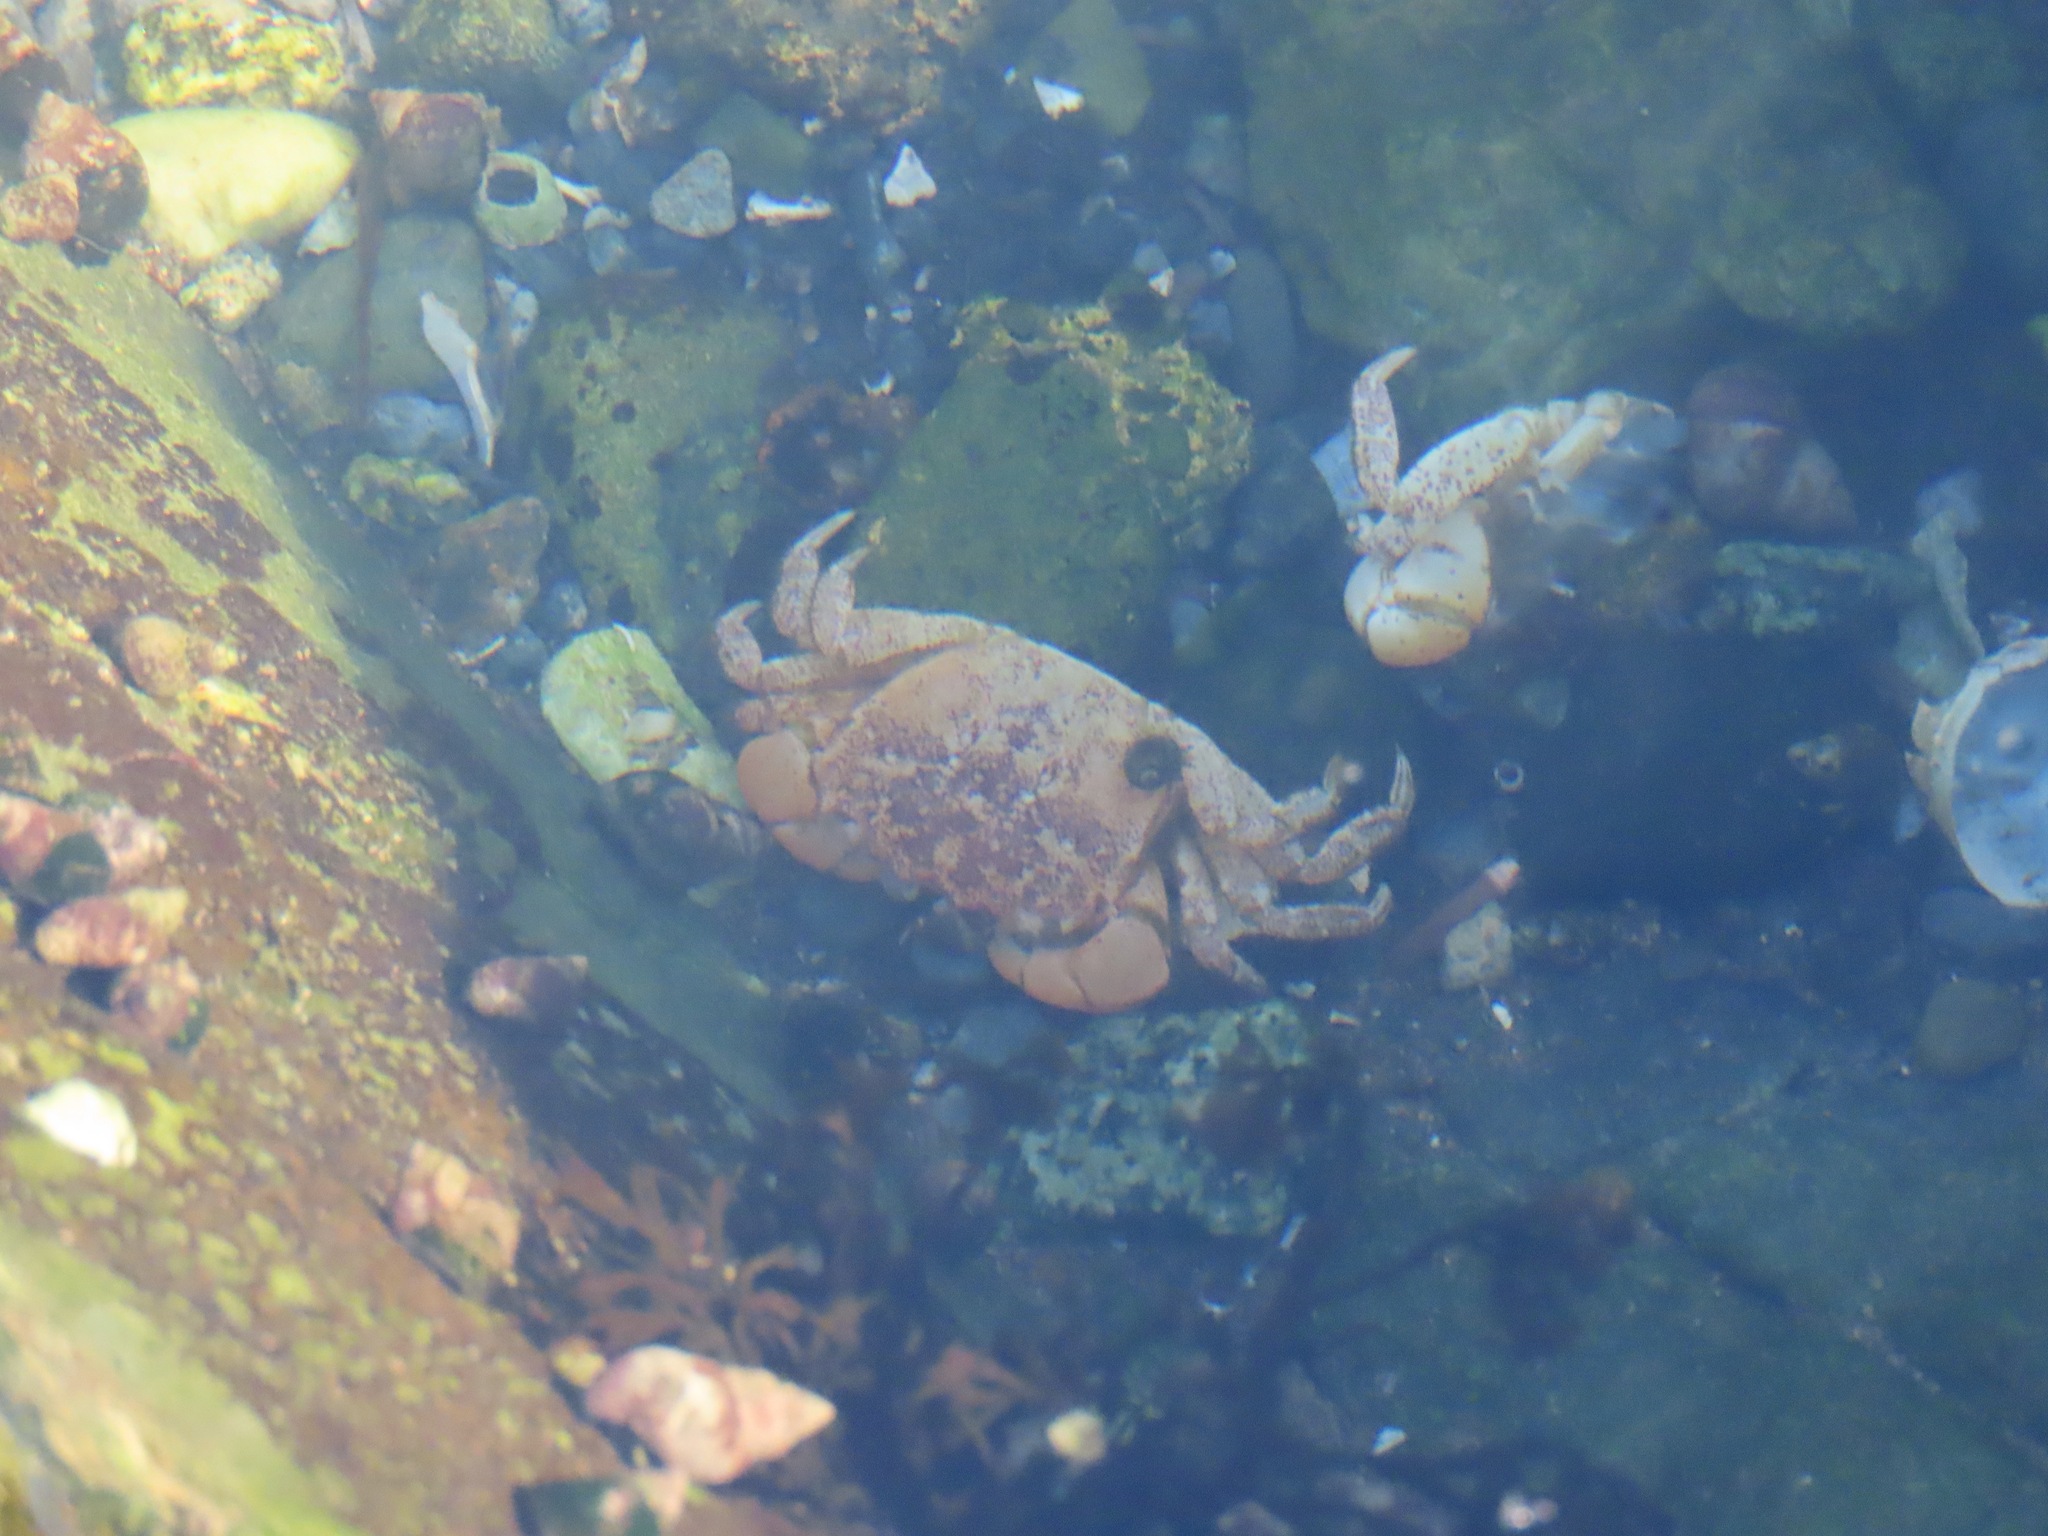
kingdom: Animalia
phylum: Arthropoda
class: Malacostraca
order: Decapoda
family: Varunidae
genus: Hemigrapsus
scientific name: Hemigrapsus oregonensis
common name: Yellow shore crab
